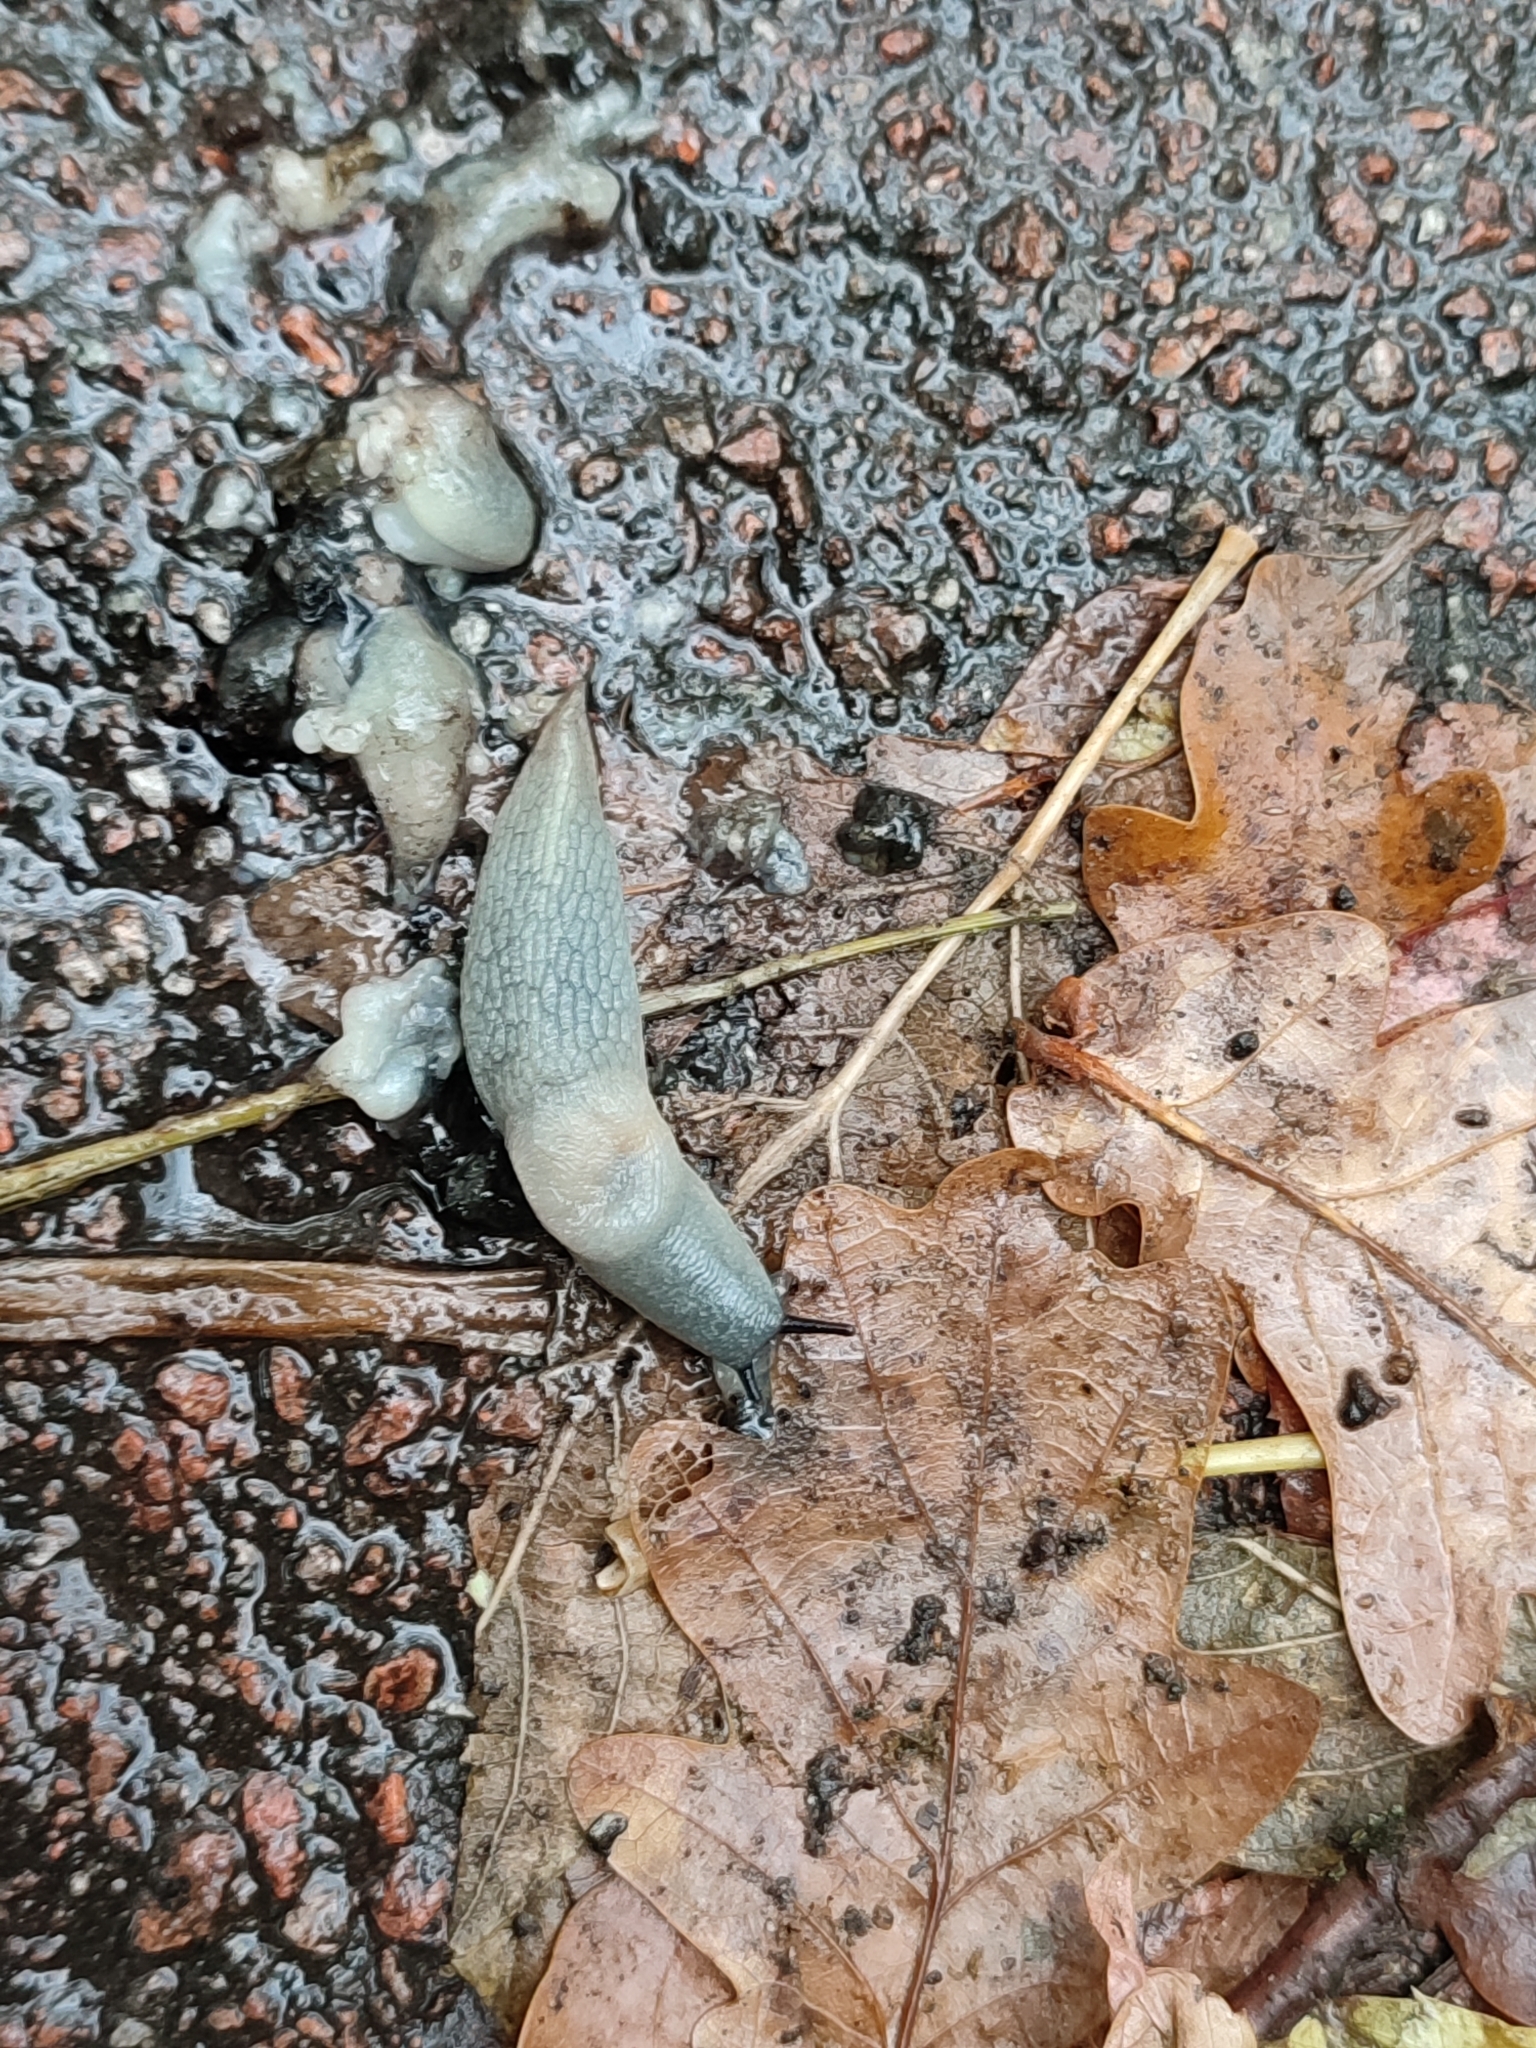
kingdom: Animalia
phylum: Mollusca
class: Gastropoda
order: Stylommatophora
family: Agriolimacidae
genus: Krynickillus
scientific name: Krynickillus melanocephalus
